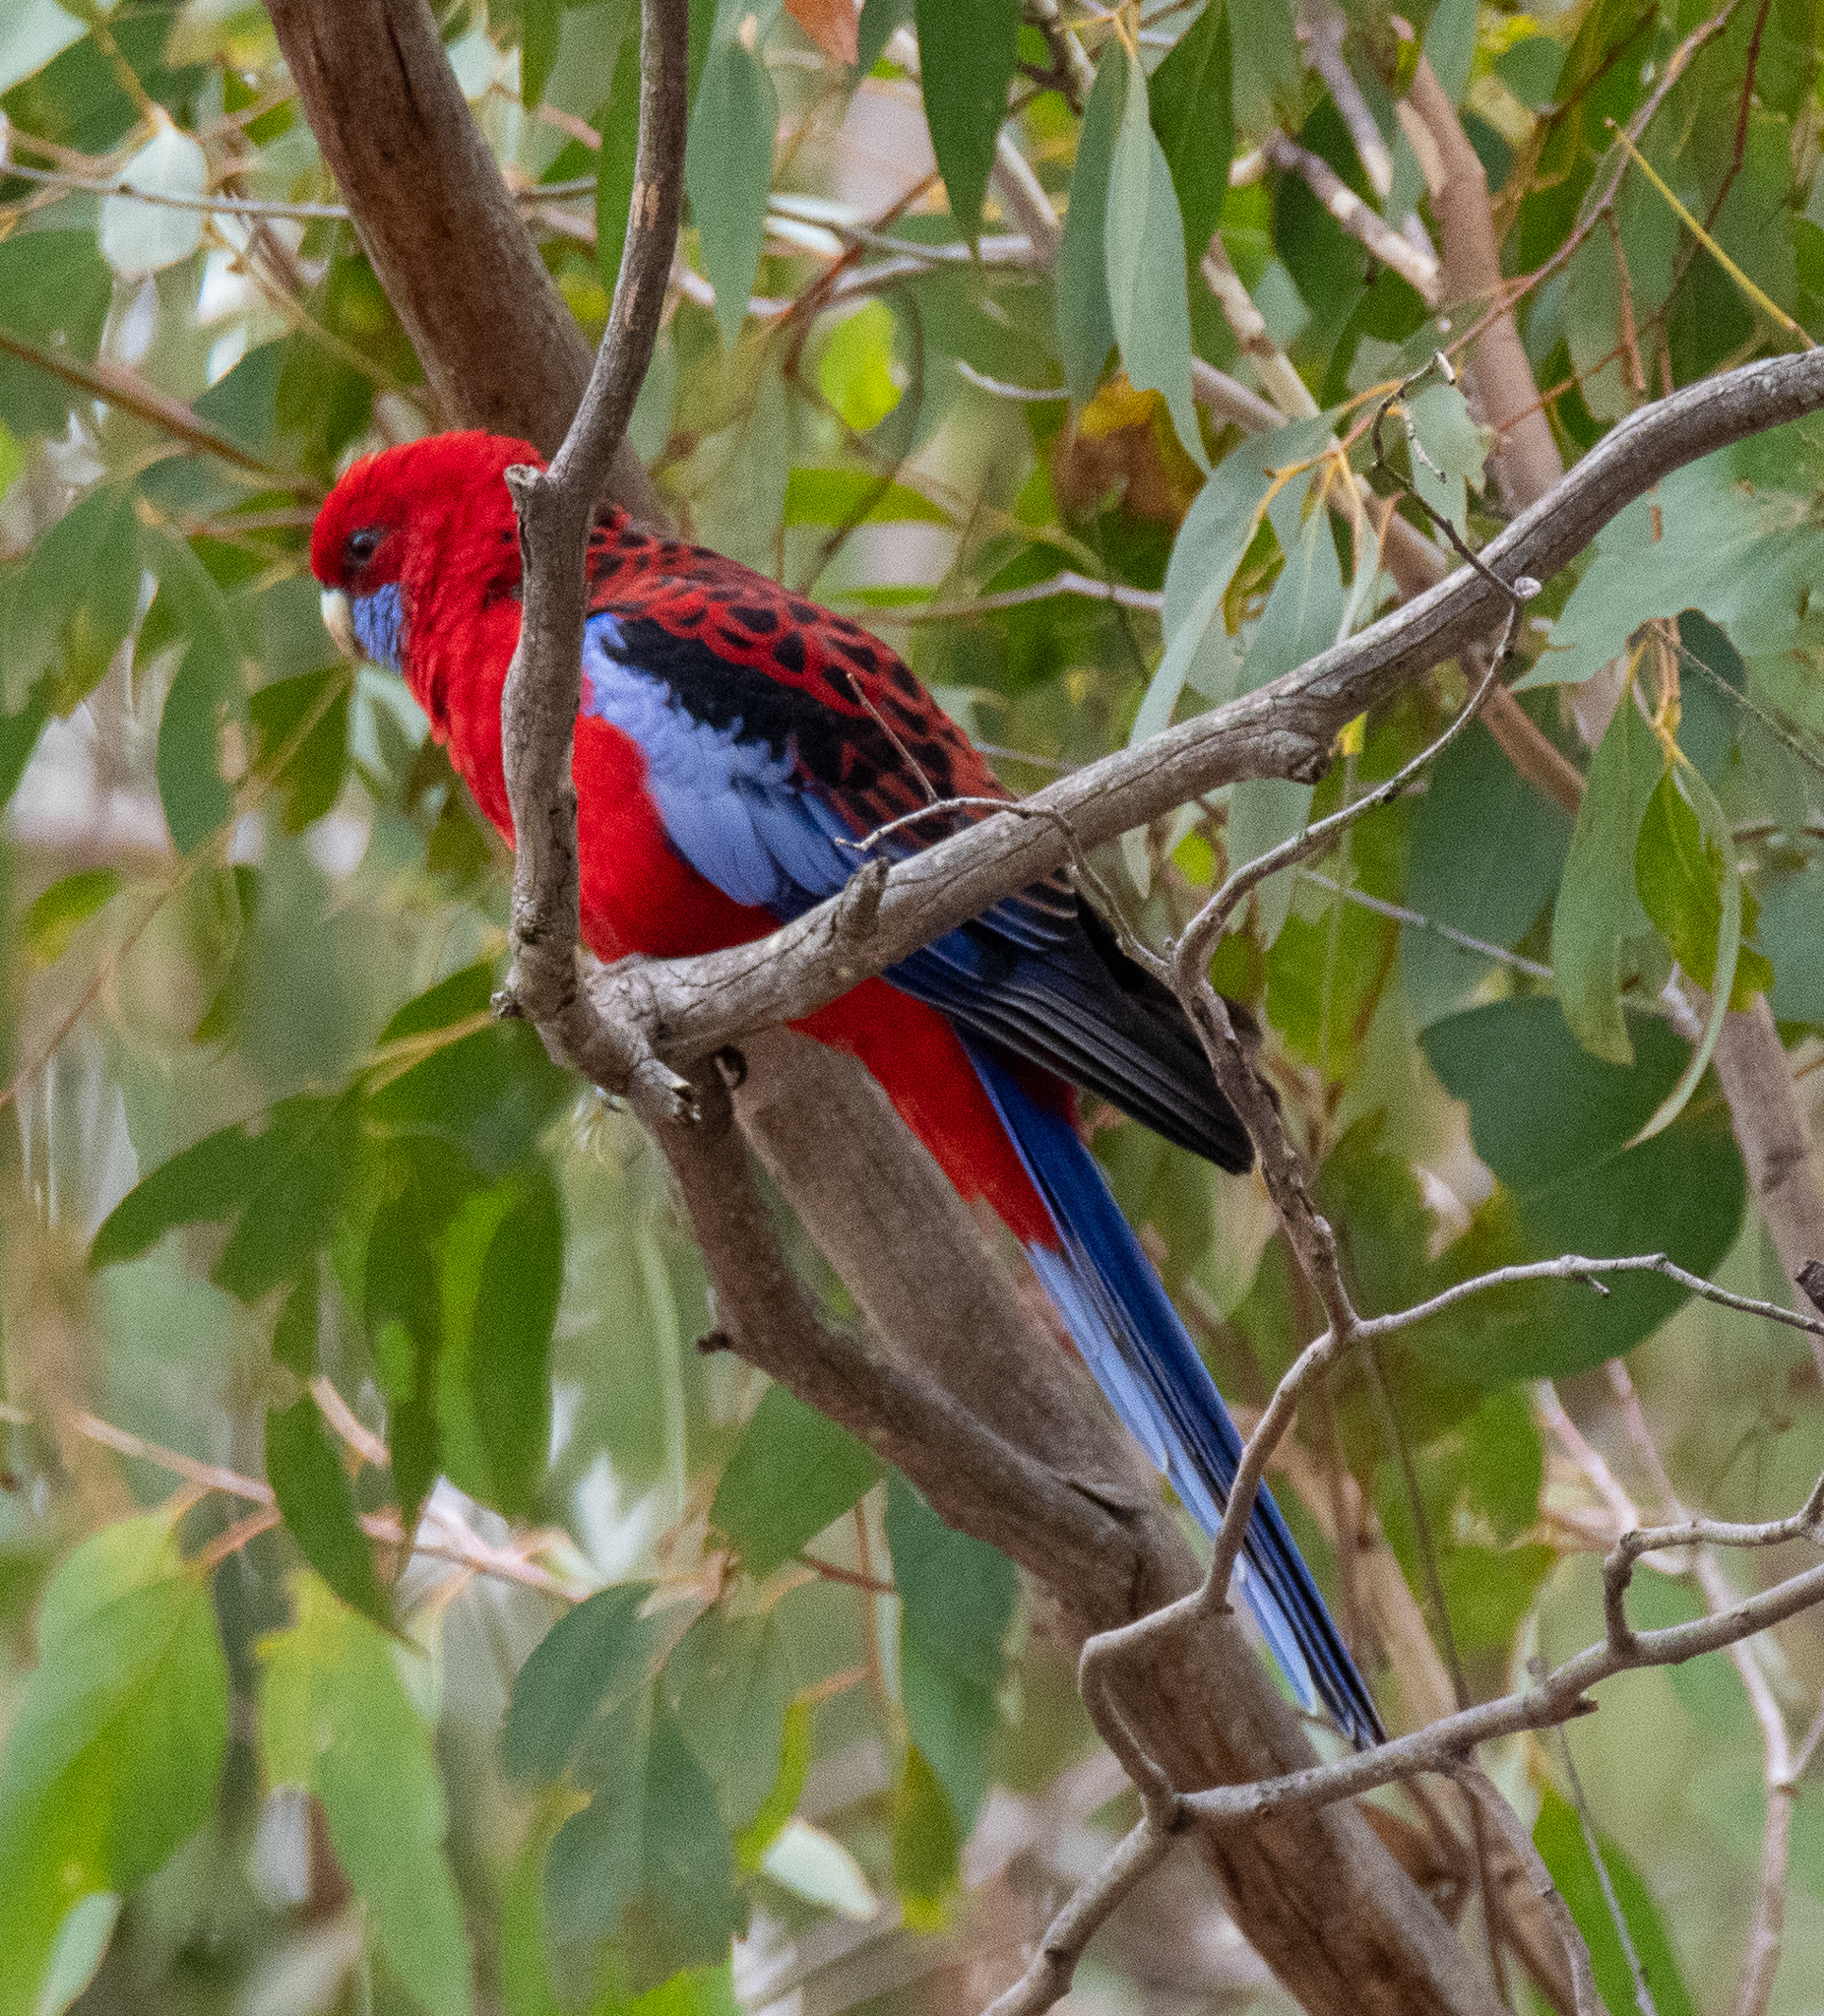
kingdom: Animalia
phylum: Chordata
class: Aves
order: Psittaciformes
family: Psittacidae
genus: Platycercus
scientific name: Platycercus elegans
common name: Crimson rosella
